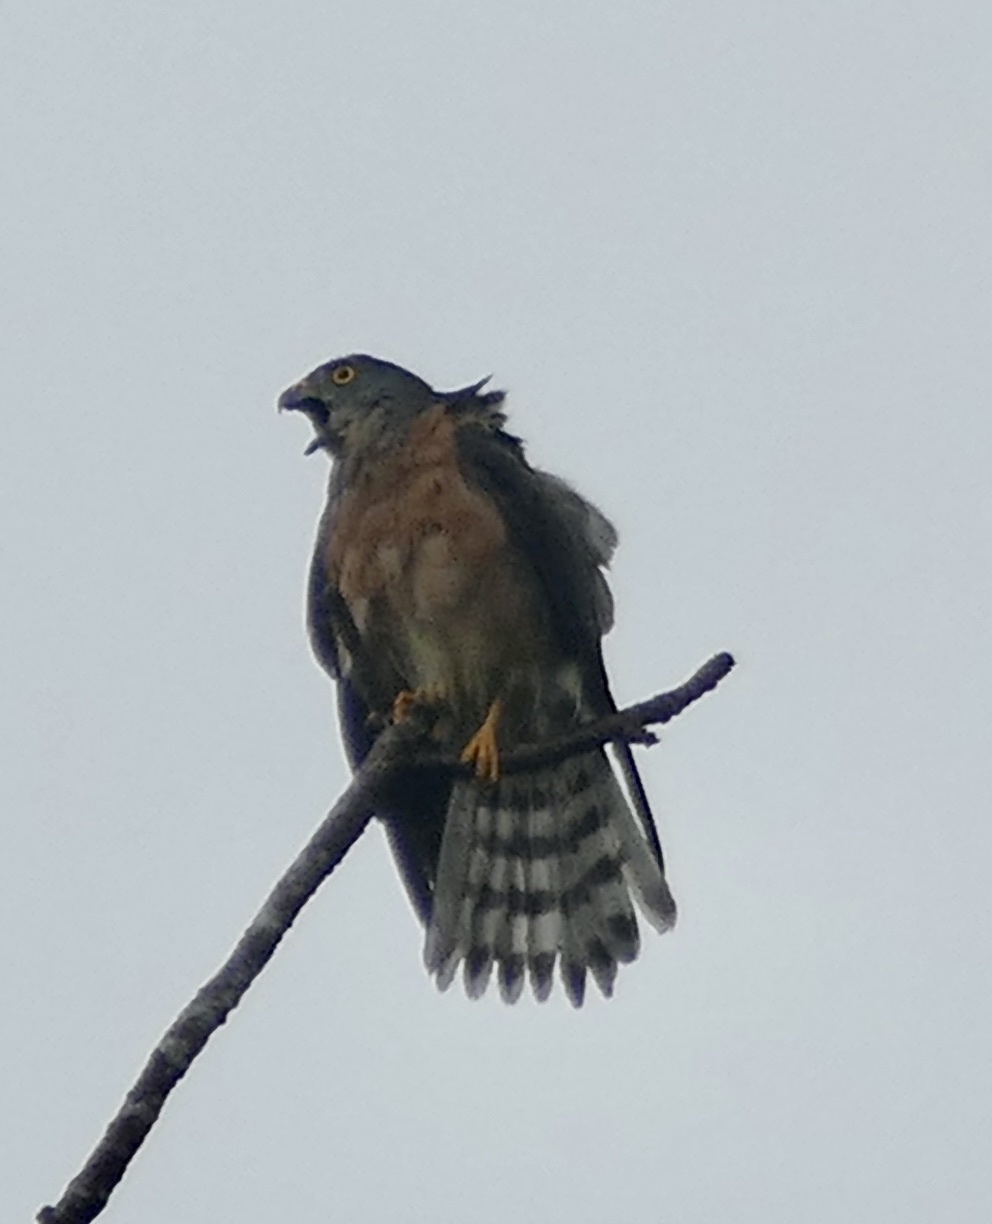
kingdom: Animalia
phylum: Chordata
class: Aves
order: Accipitriformes
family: Accipitridae
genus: Accipiter
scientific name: Accipiter soloensis
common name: Chinese sparrowhawk
